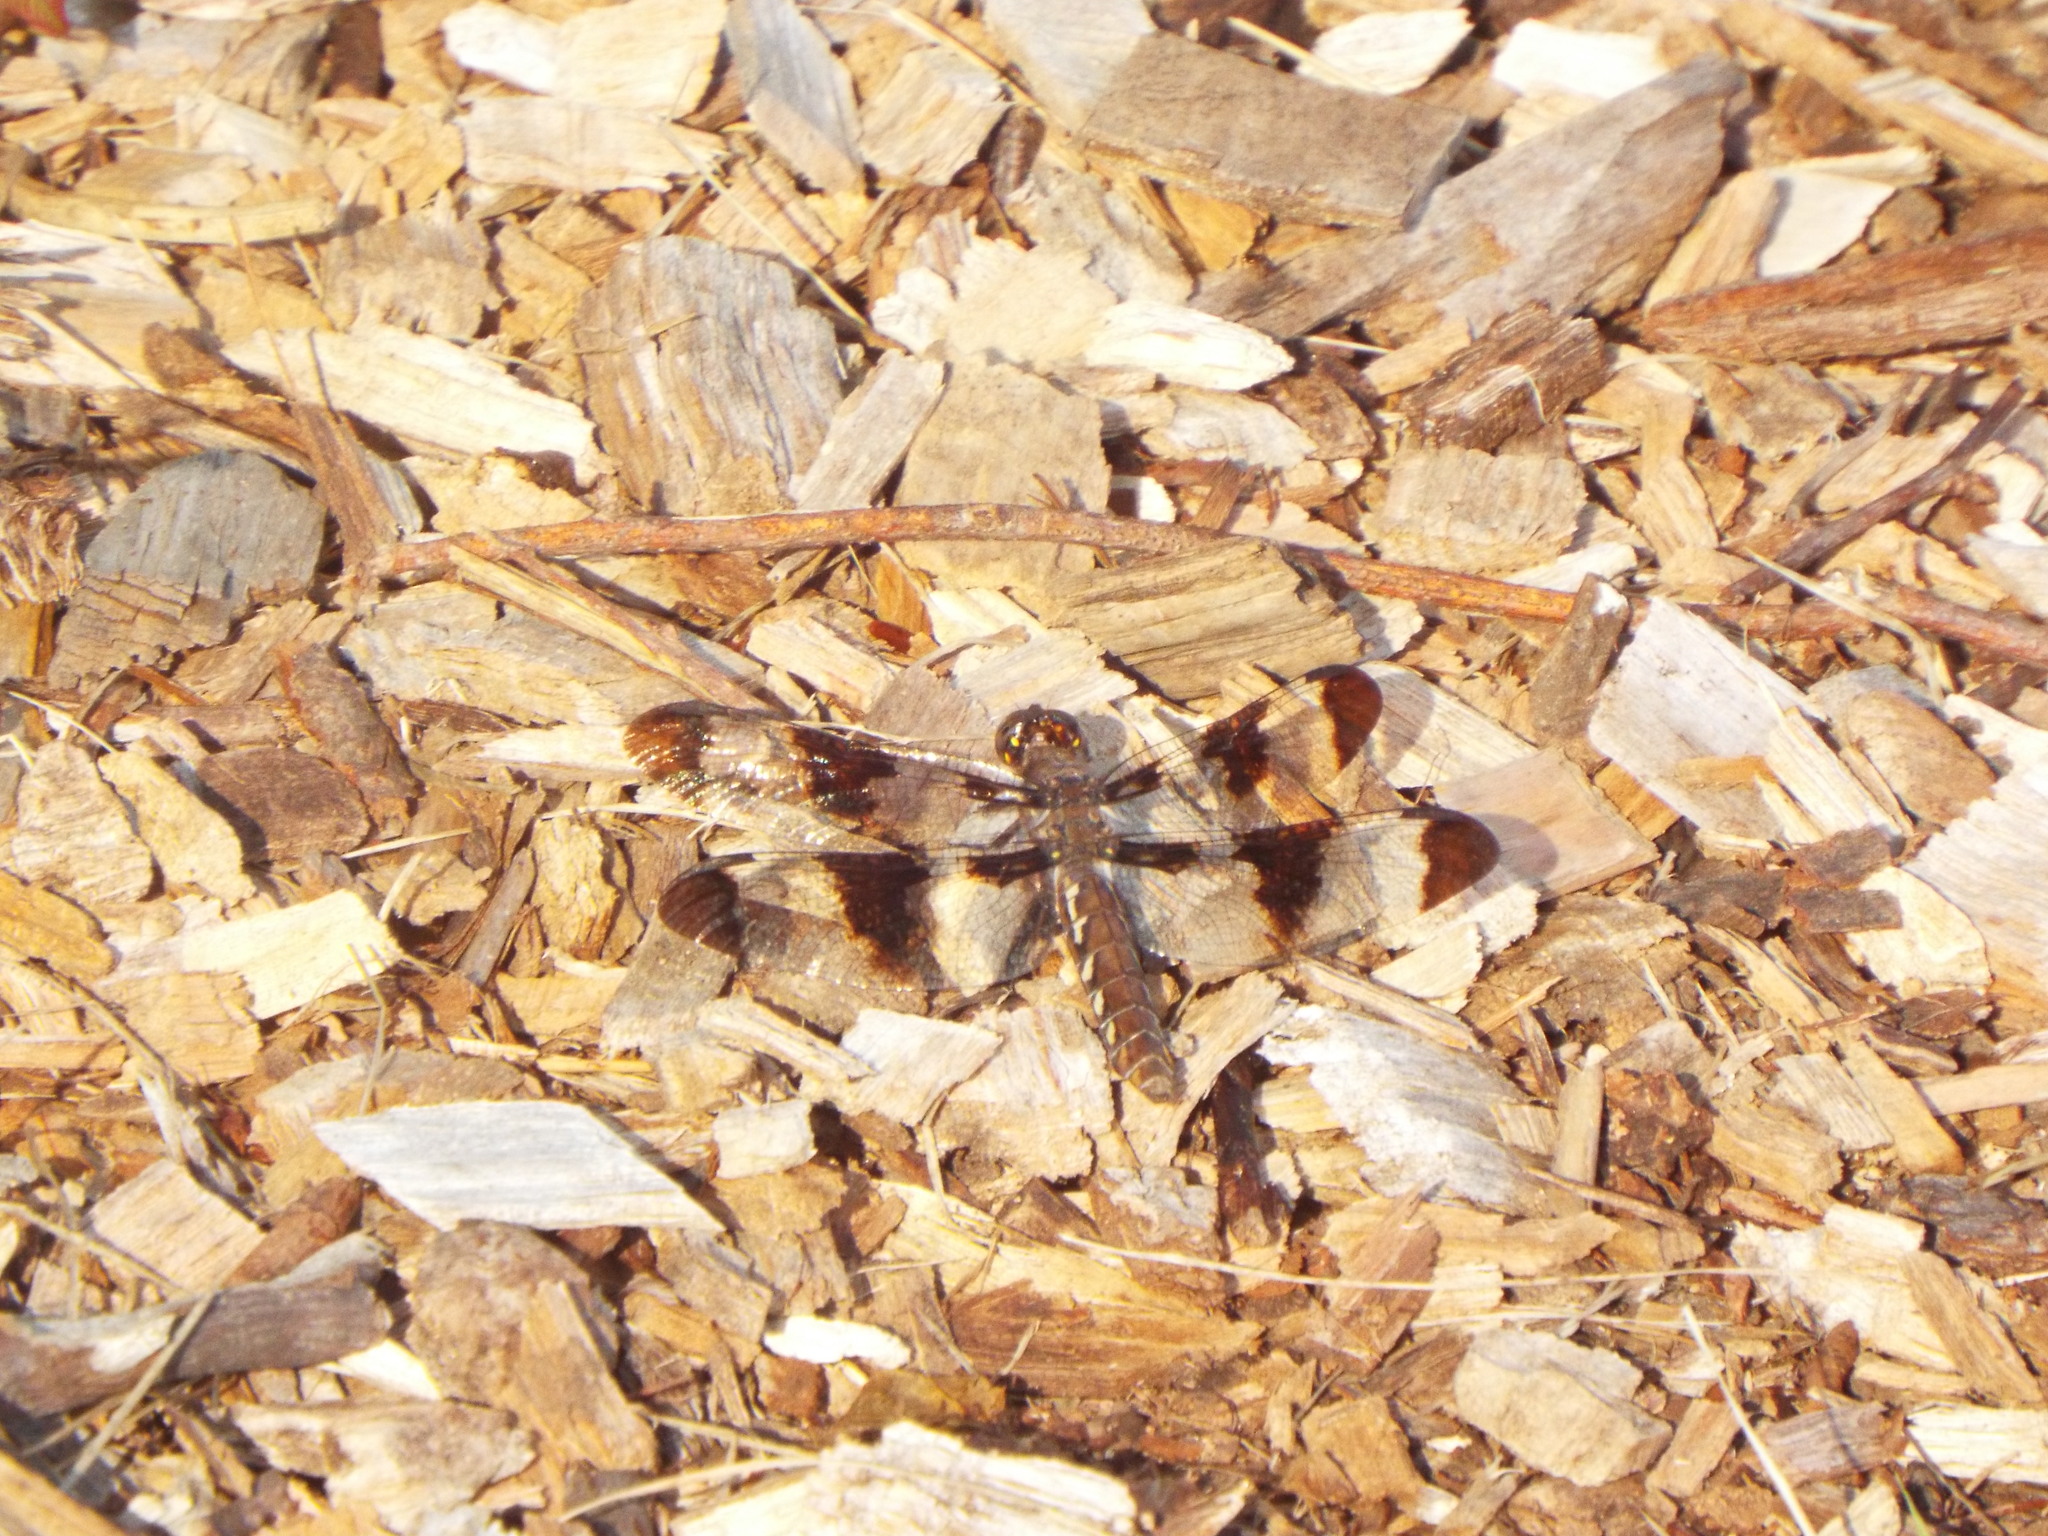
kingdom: Animalia
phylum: Arthropoda
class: Insecta
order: Odonata
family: Libellulidae
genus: Plathemis
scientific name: Plathemis lydia
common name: Common whitetail
